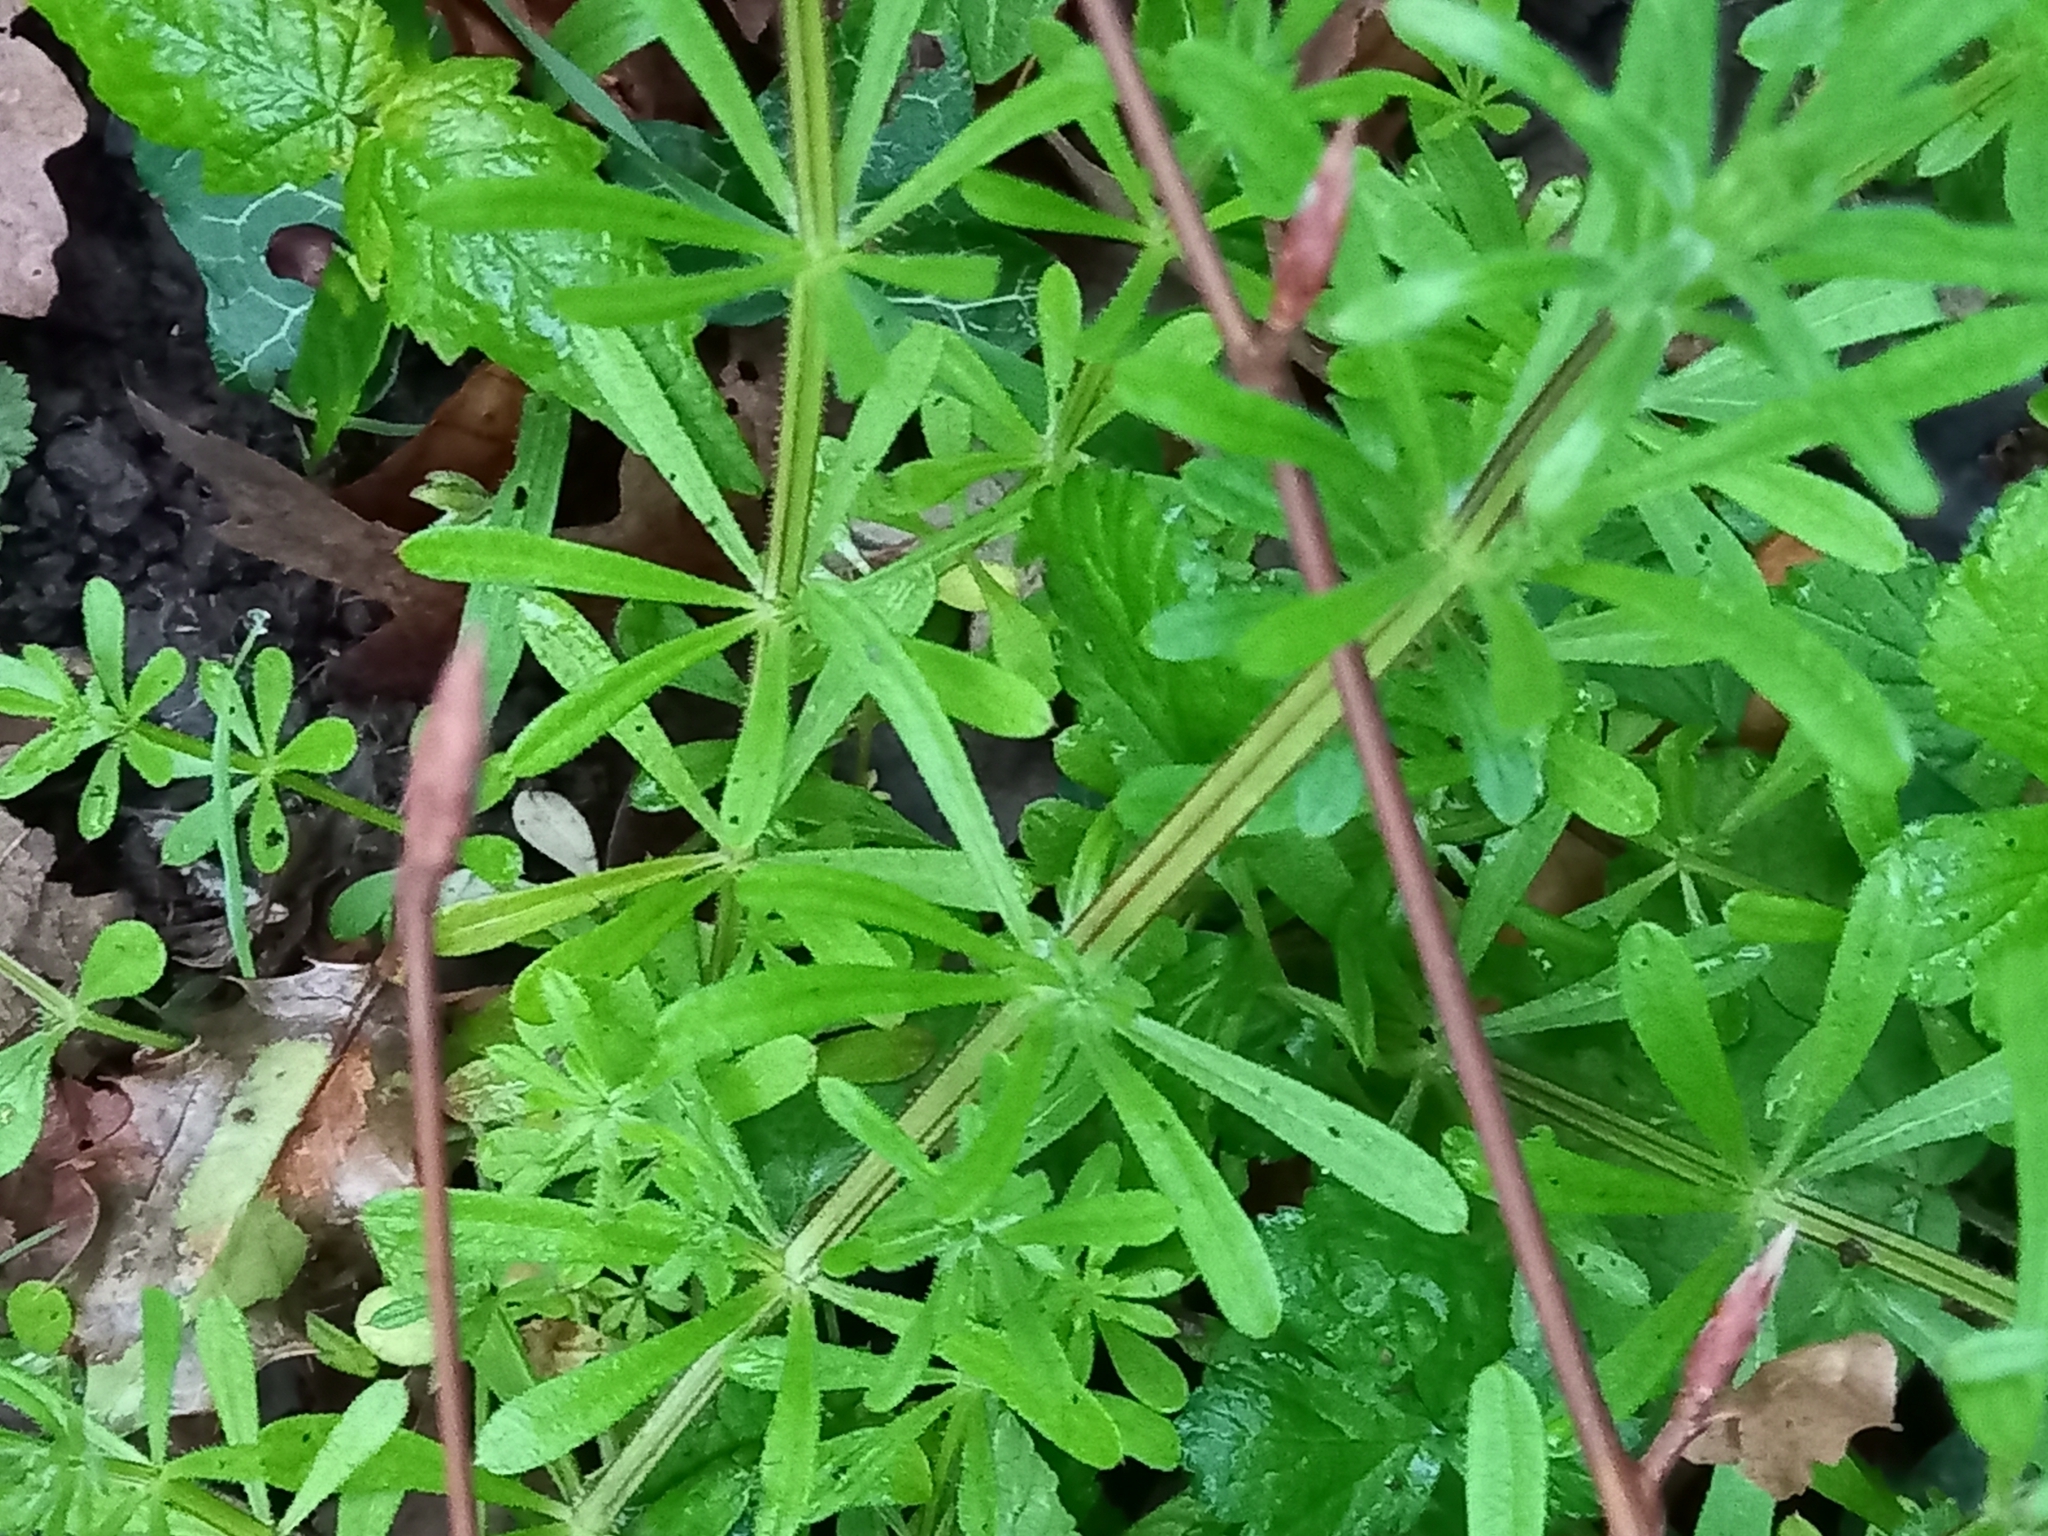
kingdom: Plantae
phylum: Tracheophyta
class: Magnoliopsida
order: Gentianales
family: Rubiaceae
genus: Galium
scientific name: Galium aparine
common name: Cleavers
